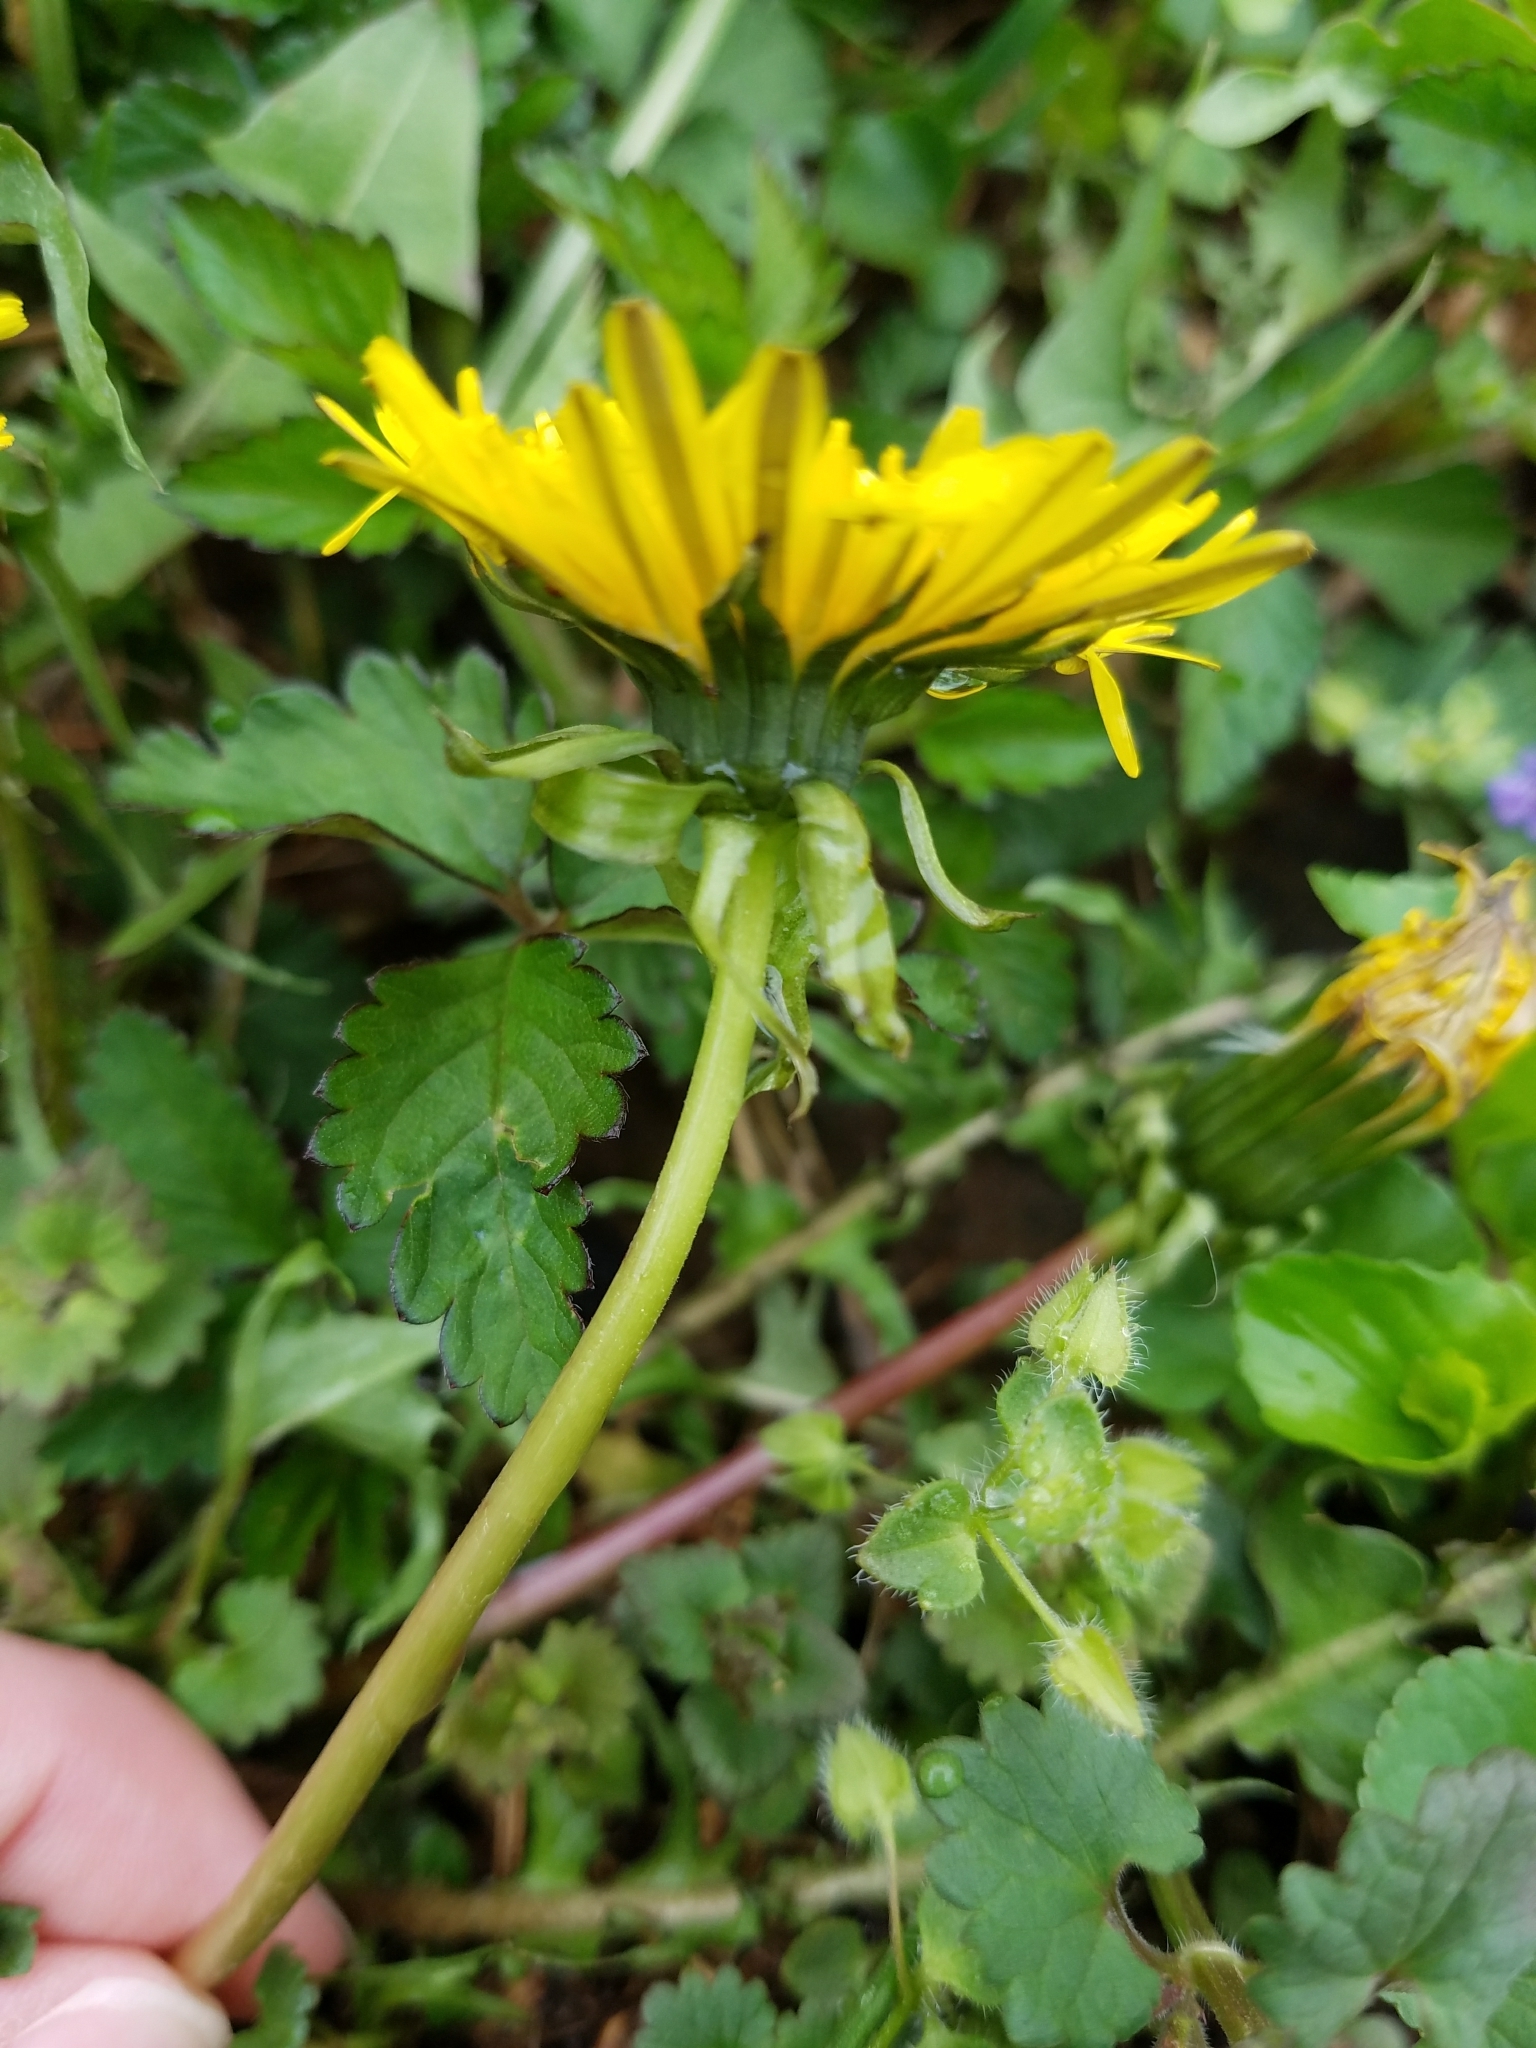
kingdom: Plantae
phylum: Tracheophyta
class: Magnoliopsida
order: Asterales
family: Asteraceae
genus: Taraxacum
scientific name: Taraxacum officinale
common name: Common dandelion
